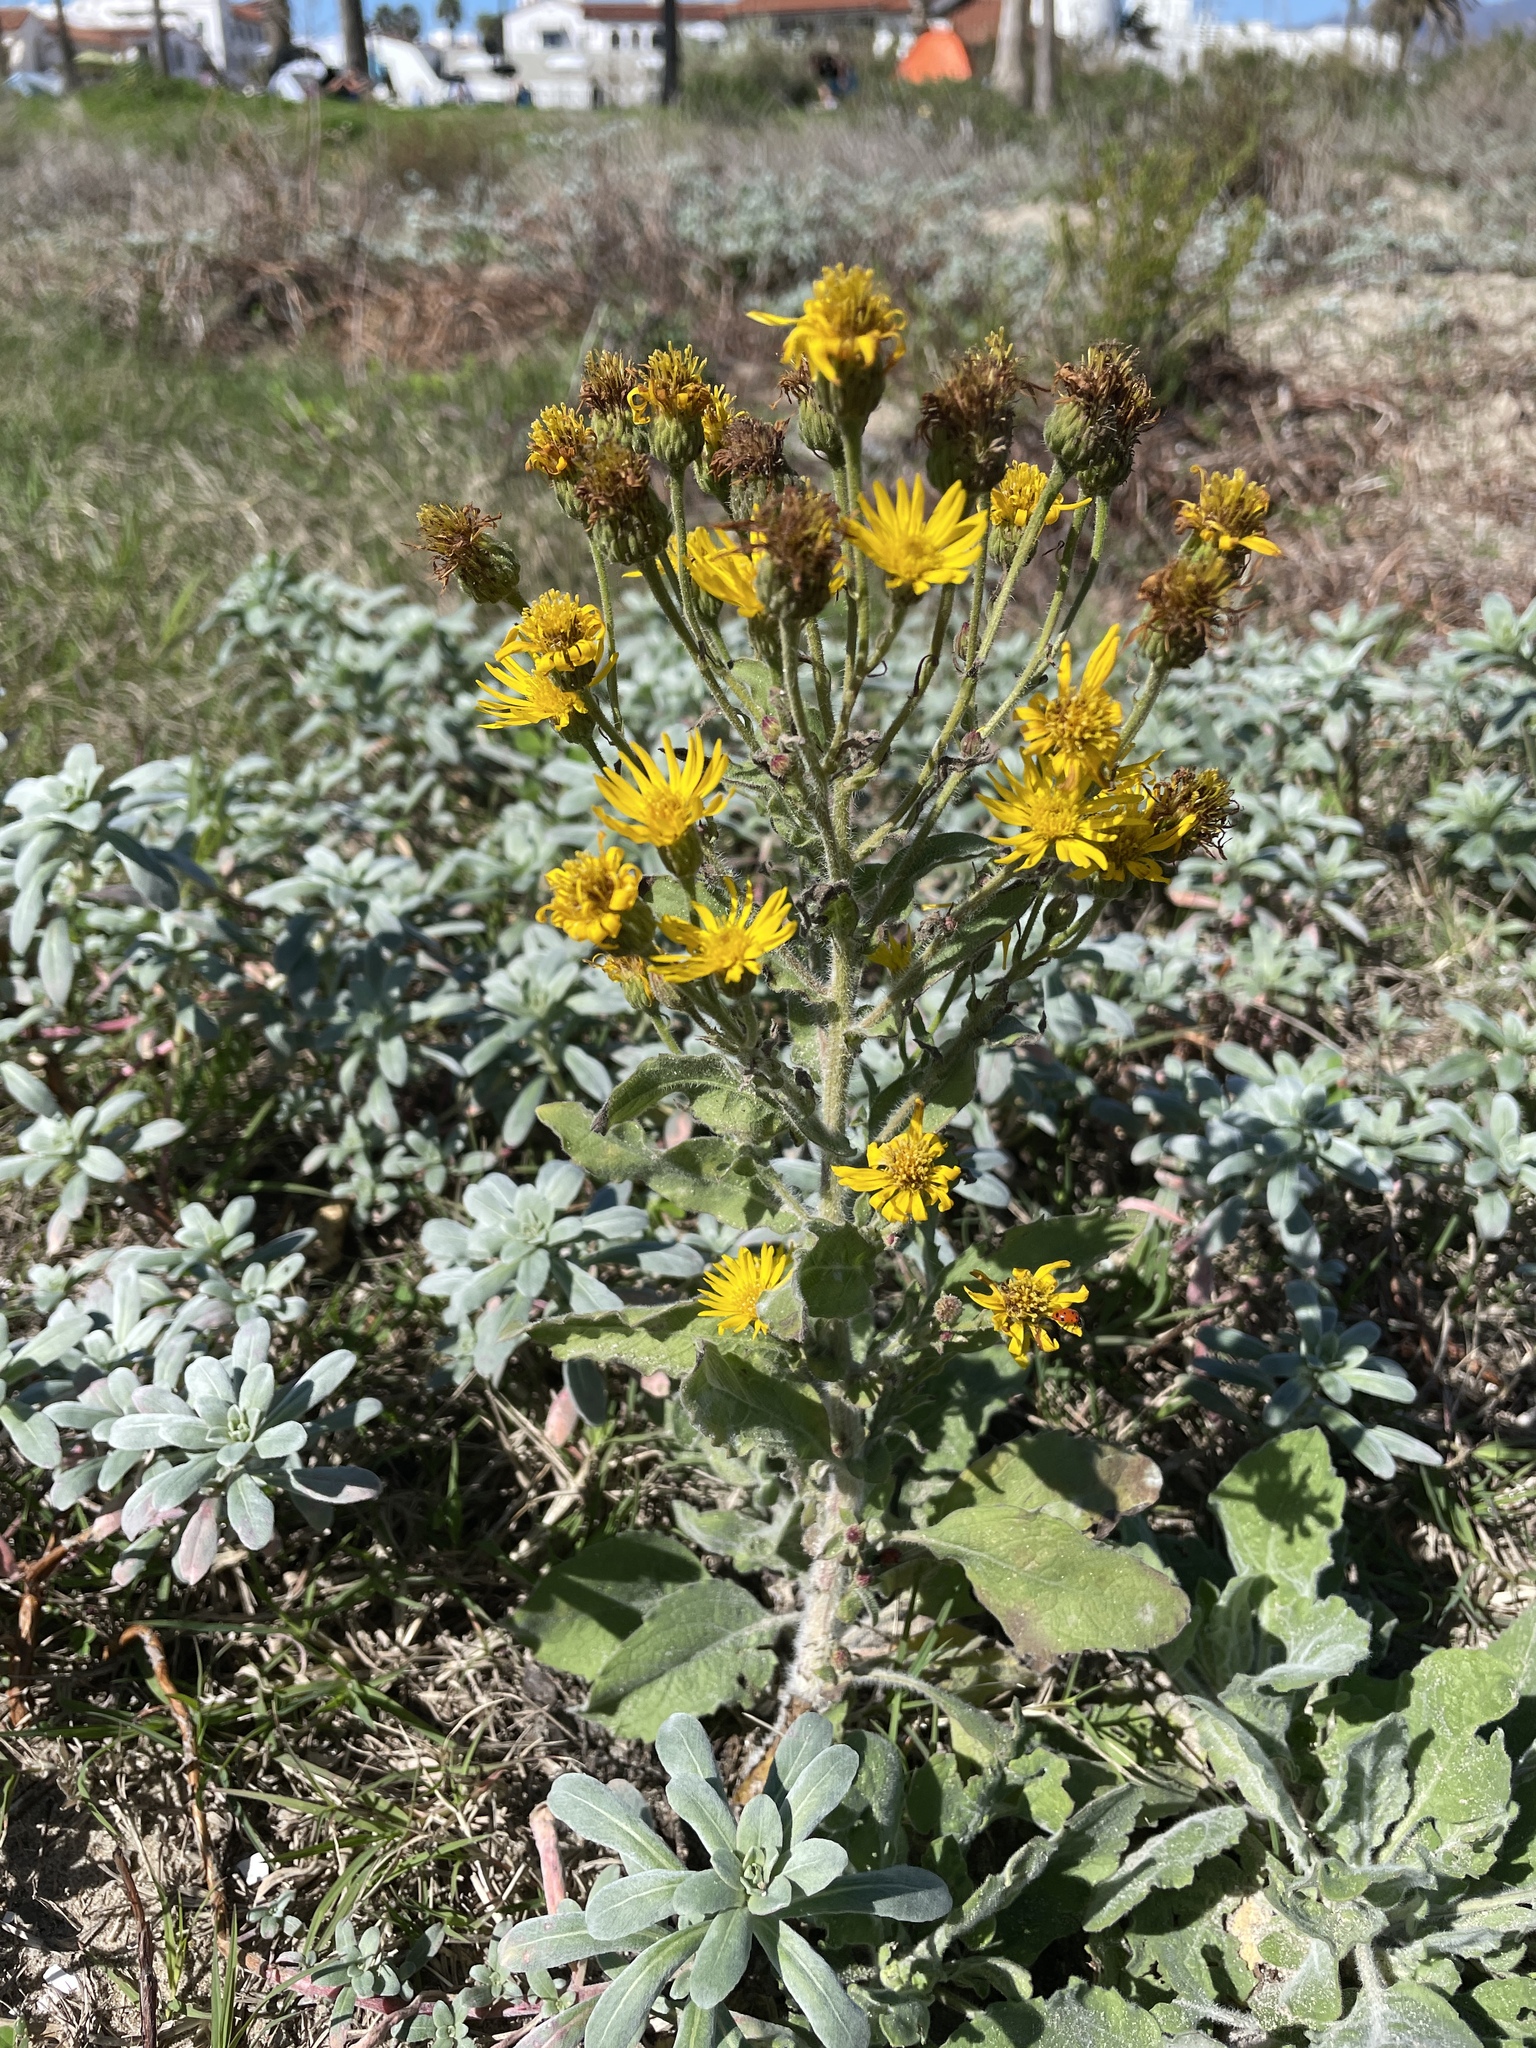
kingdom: Plantae
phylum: Tracheophyta
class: Magnoliopsida
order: Asterales
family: Asteraceae
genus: Heterotheca
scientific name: Heterotheca grandiflora
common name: Telegraphweed
